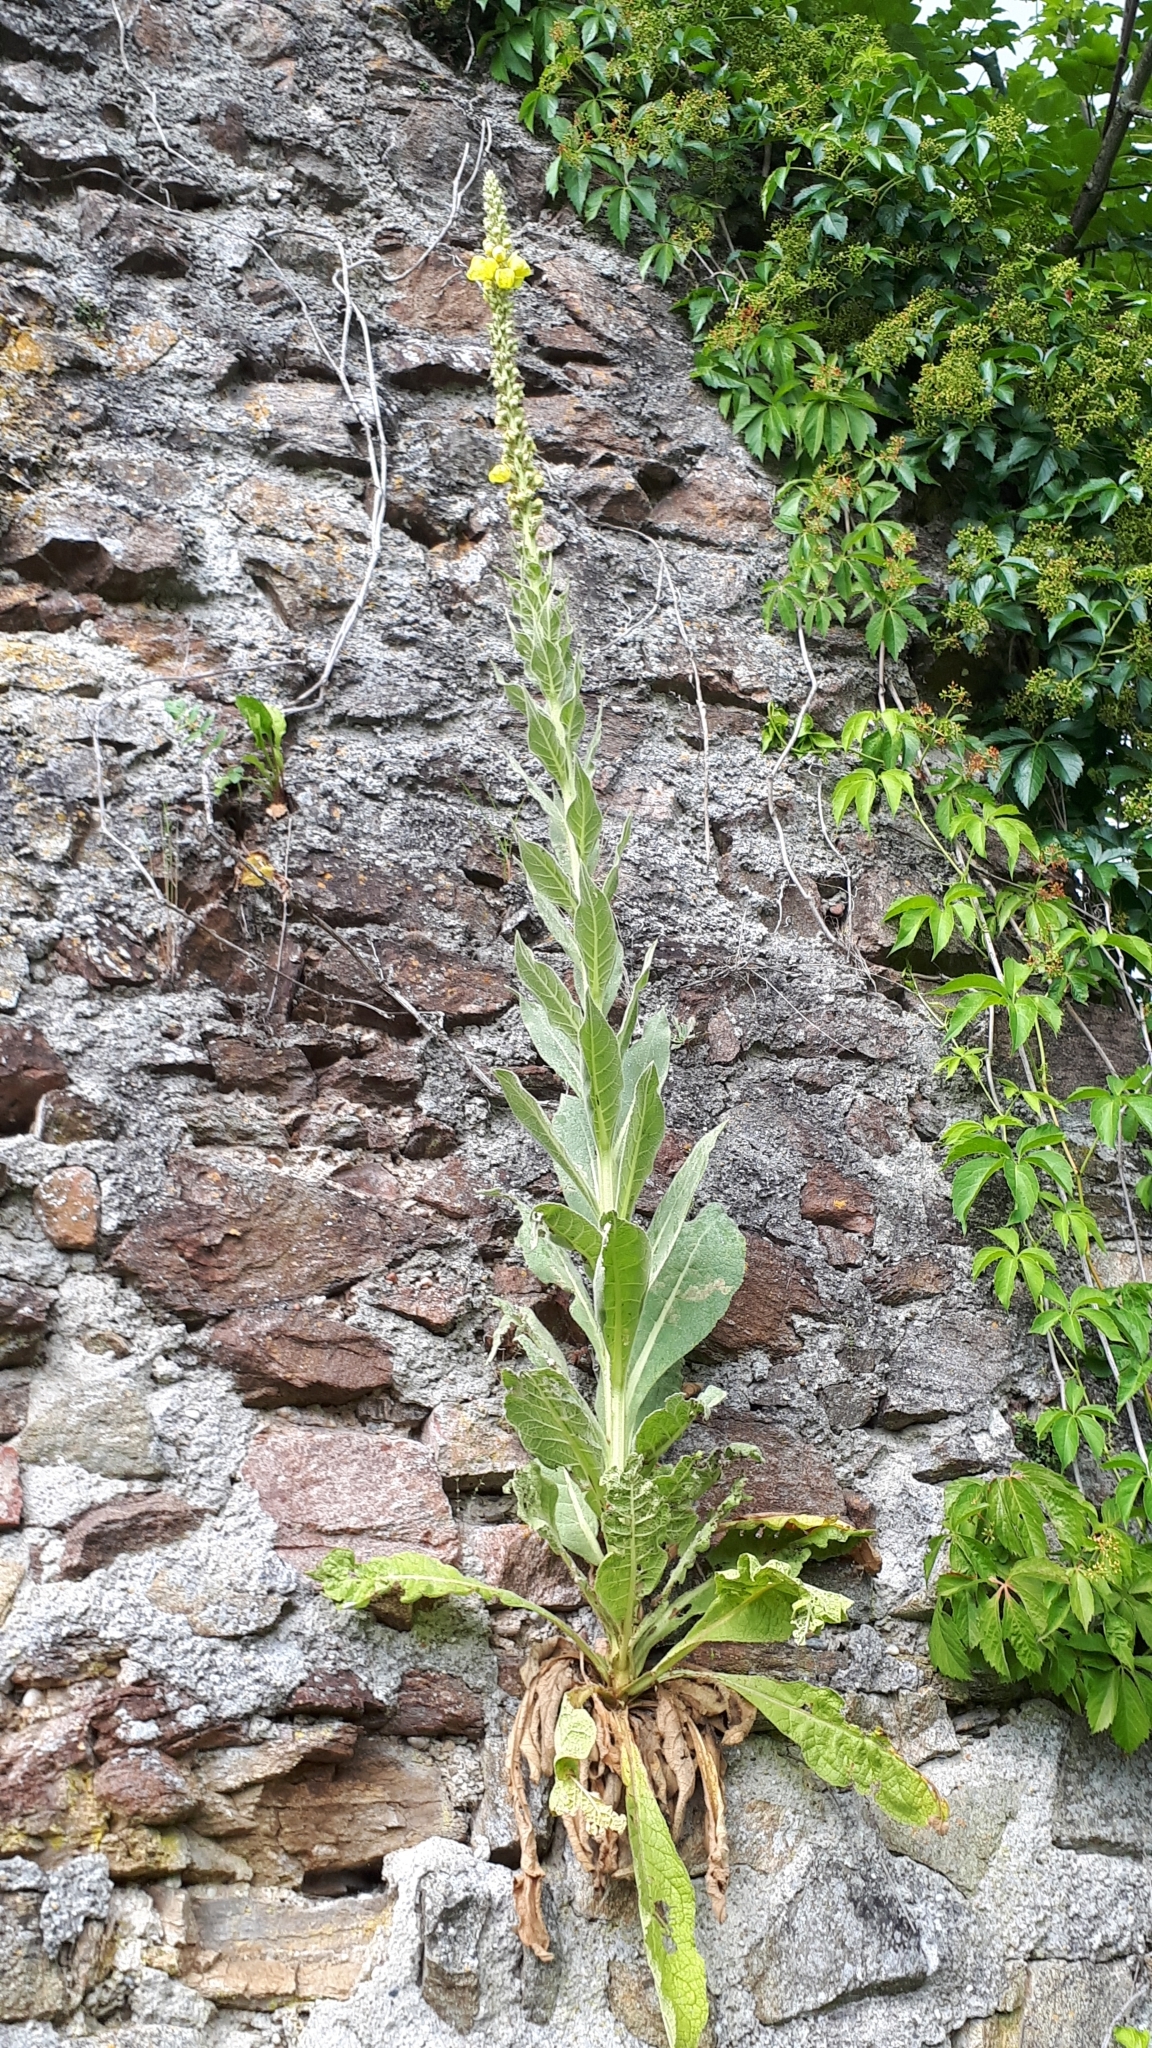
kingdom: Plantae
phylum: Tracheophyta
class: Magnoliopsida
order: Lamiales
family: Scrophulariaceae
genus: Verbascum
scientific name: Verbascum thapsus
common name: Common mullein
